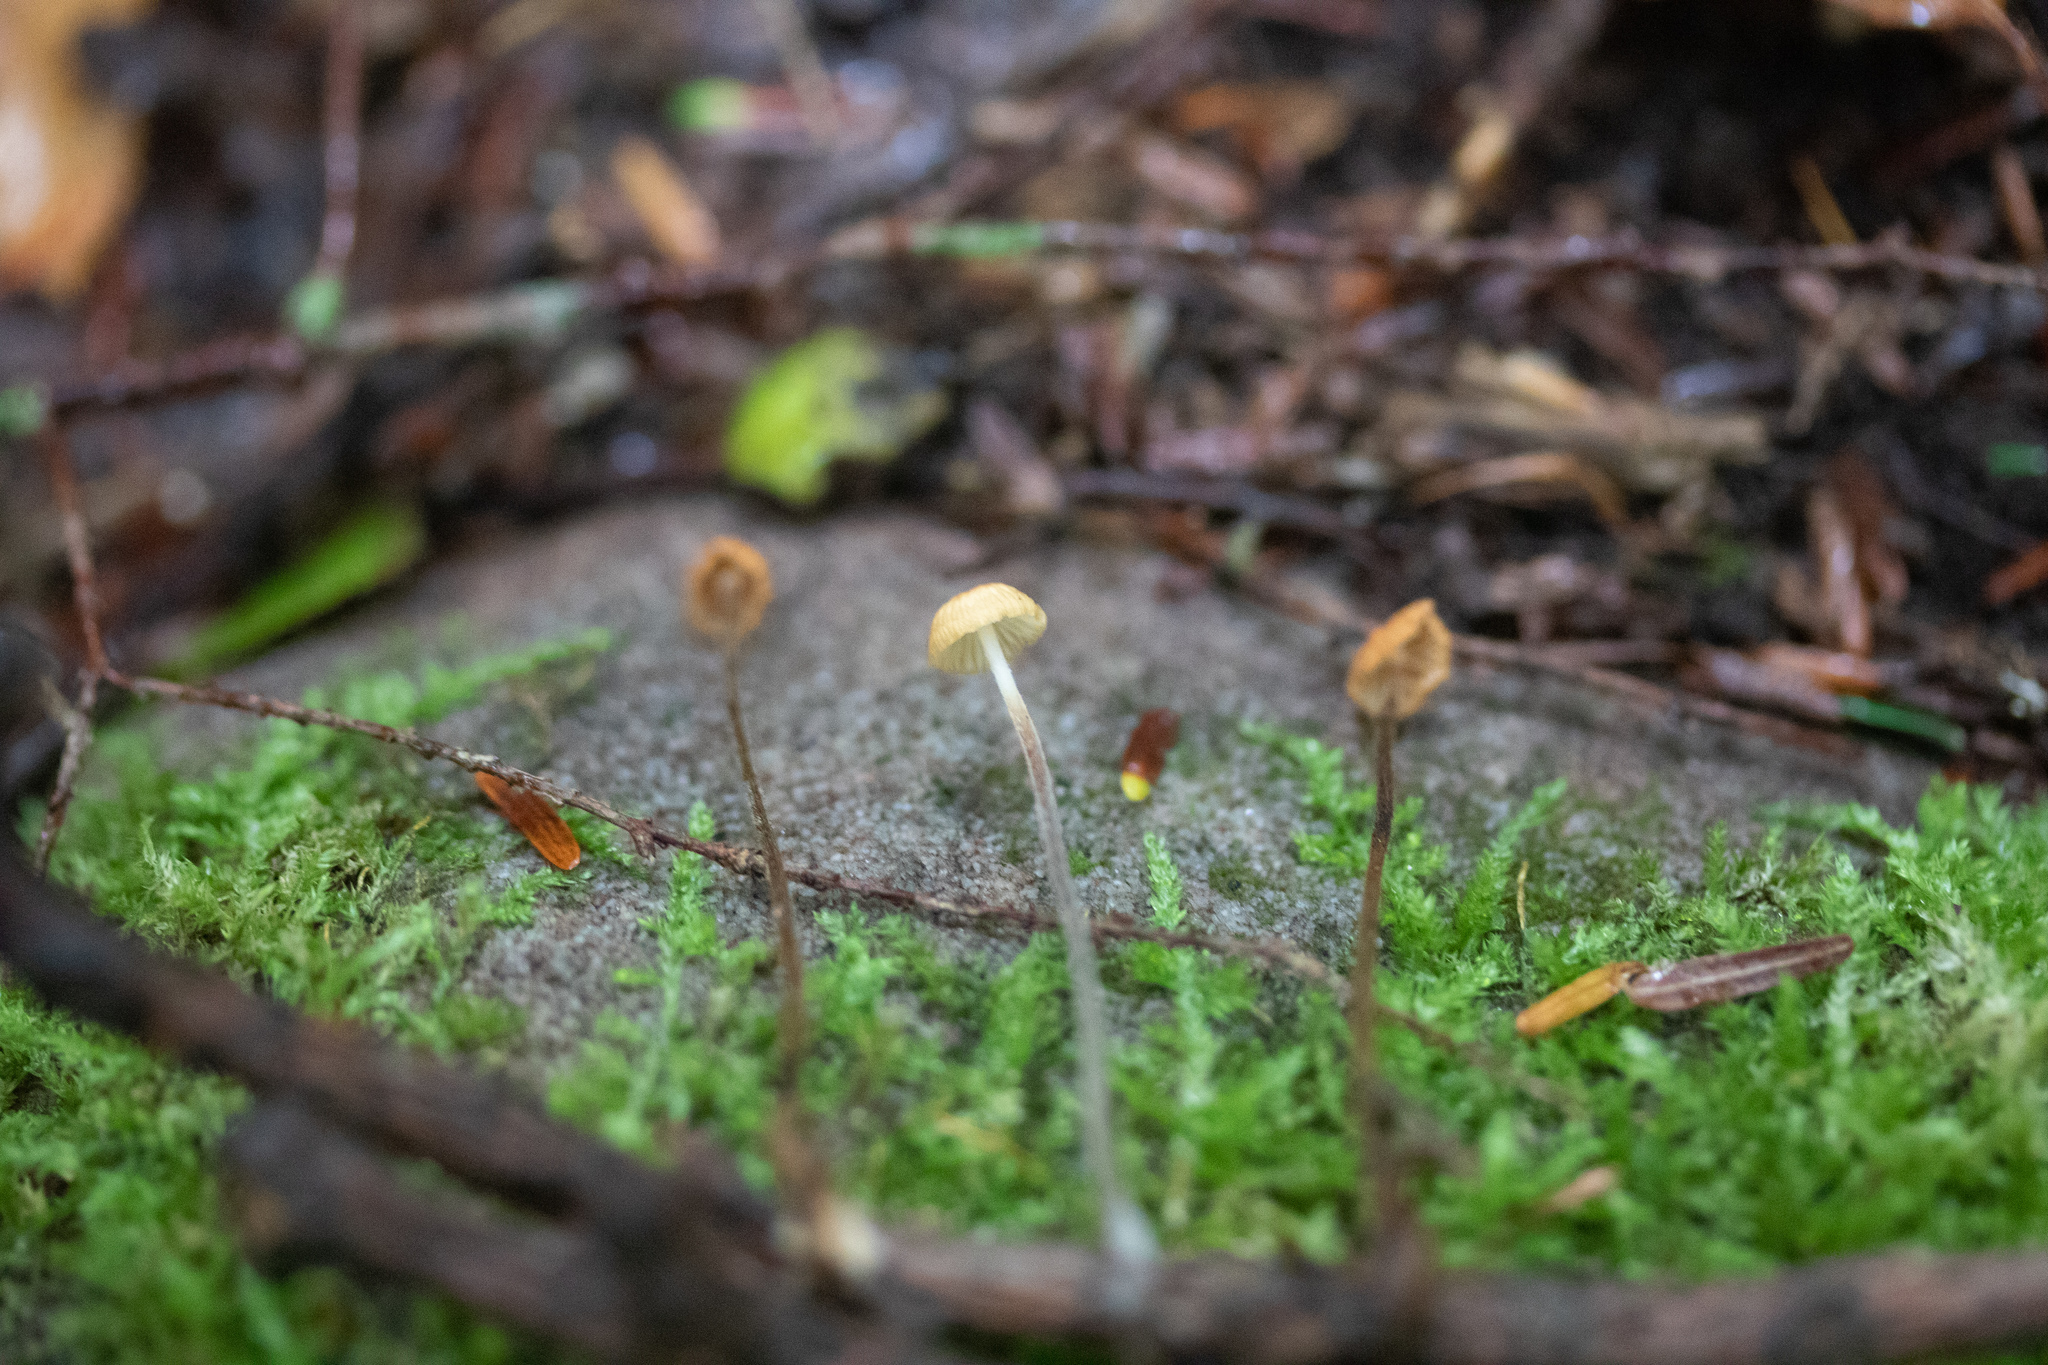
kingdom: Fungi
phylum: Basidiomycota
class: Agaricomycetes
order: Agaricales
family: Marasmiaceae
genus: Marasmius
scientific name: Marasmius siccus
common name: Orange pinwheel
